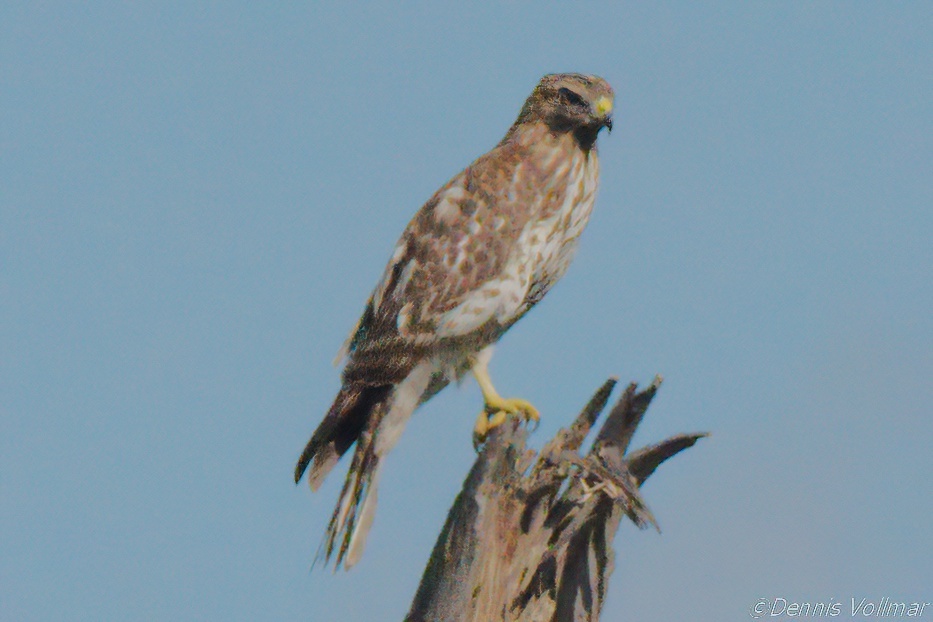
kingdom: Animalia
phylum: Chordata
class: Aves
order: Accipitriformes
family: Accipitridae
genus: Buteo
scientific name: Buteo lineatus
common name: Red-shouldered hawk
